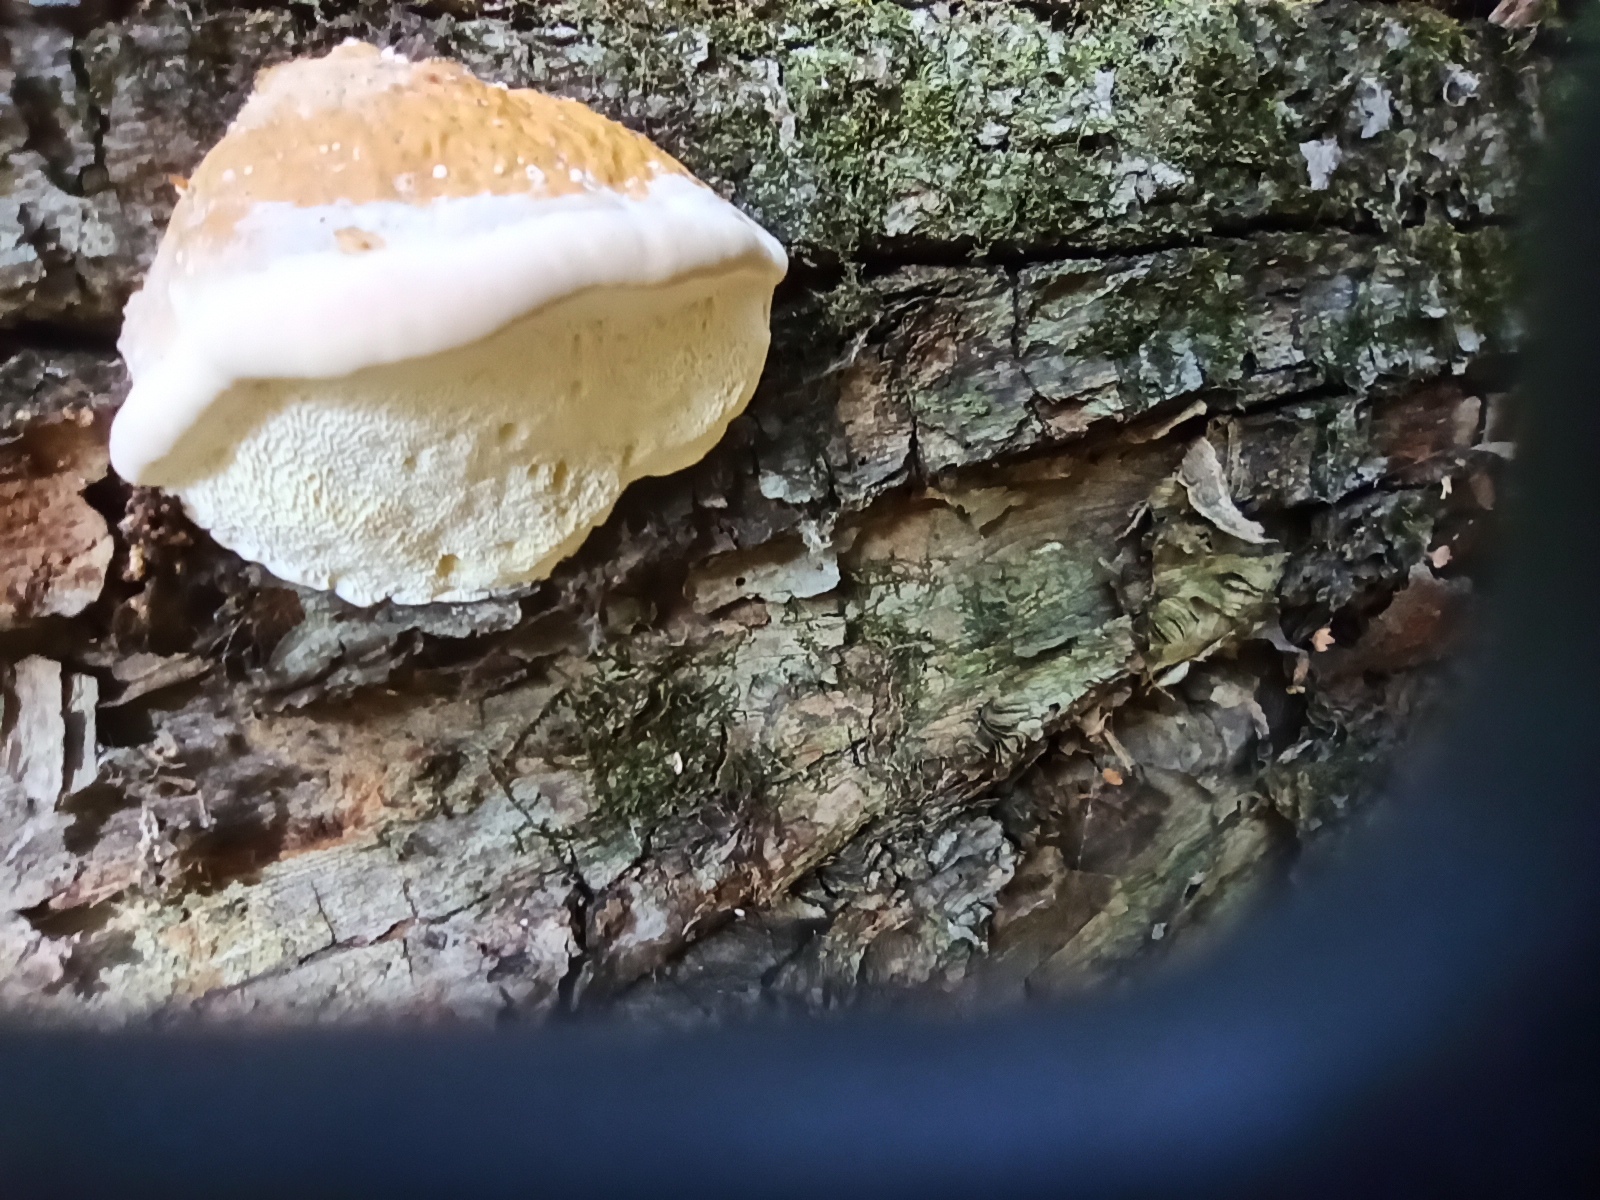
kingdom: Fungi
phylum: Basidiomycota
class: Agaricomycetes
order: Polyporales
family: Fomitopsidaceae
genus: Fomitopsis
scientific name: Fomitopsis pinicola
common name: Red-belted bracket
